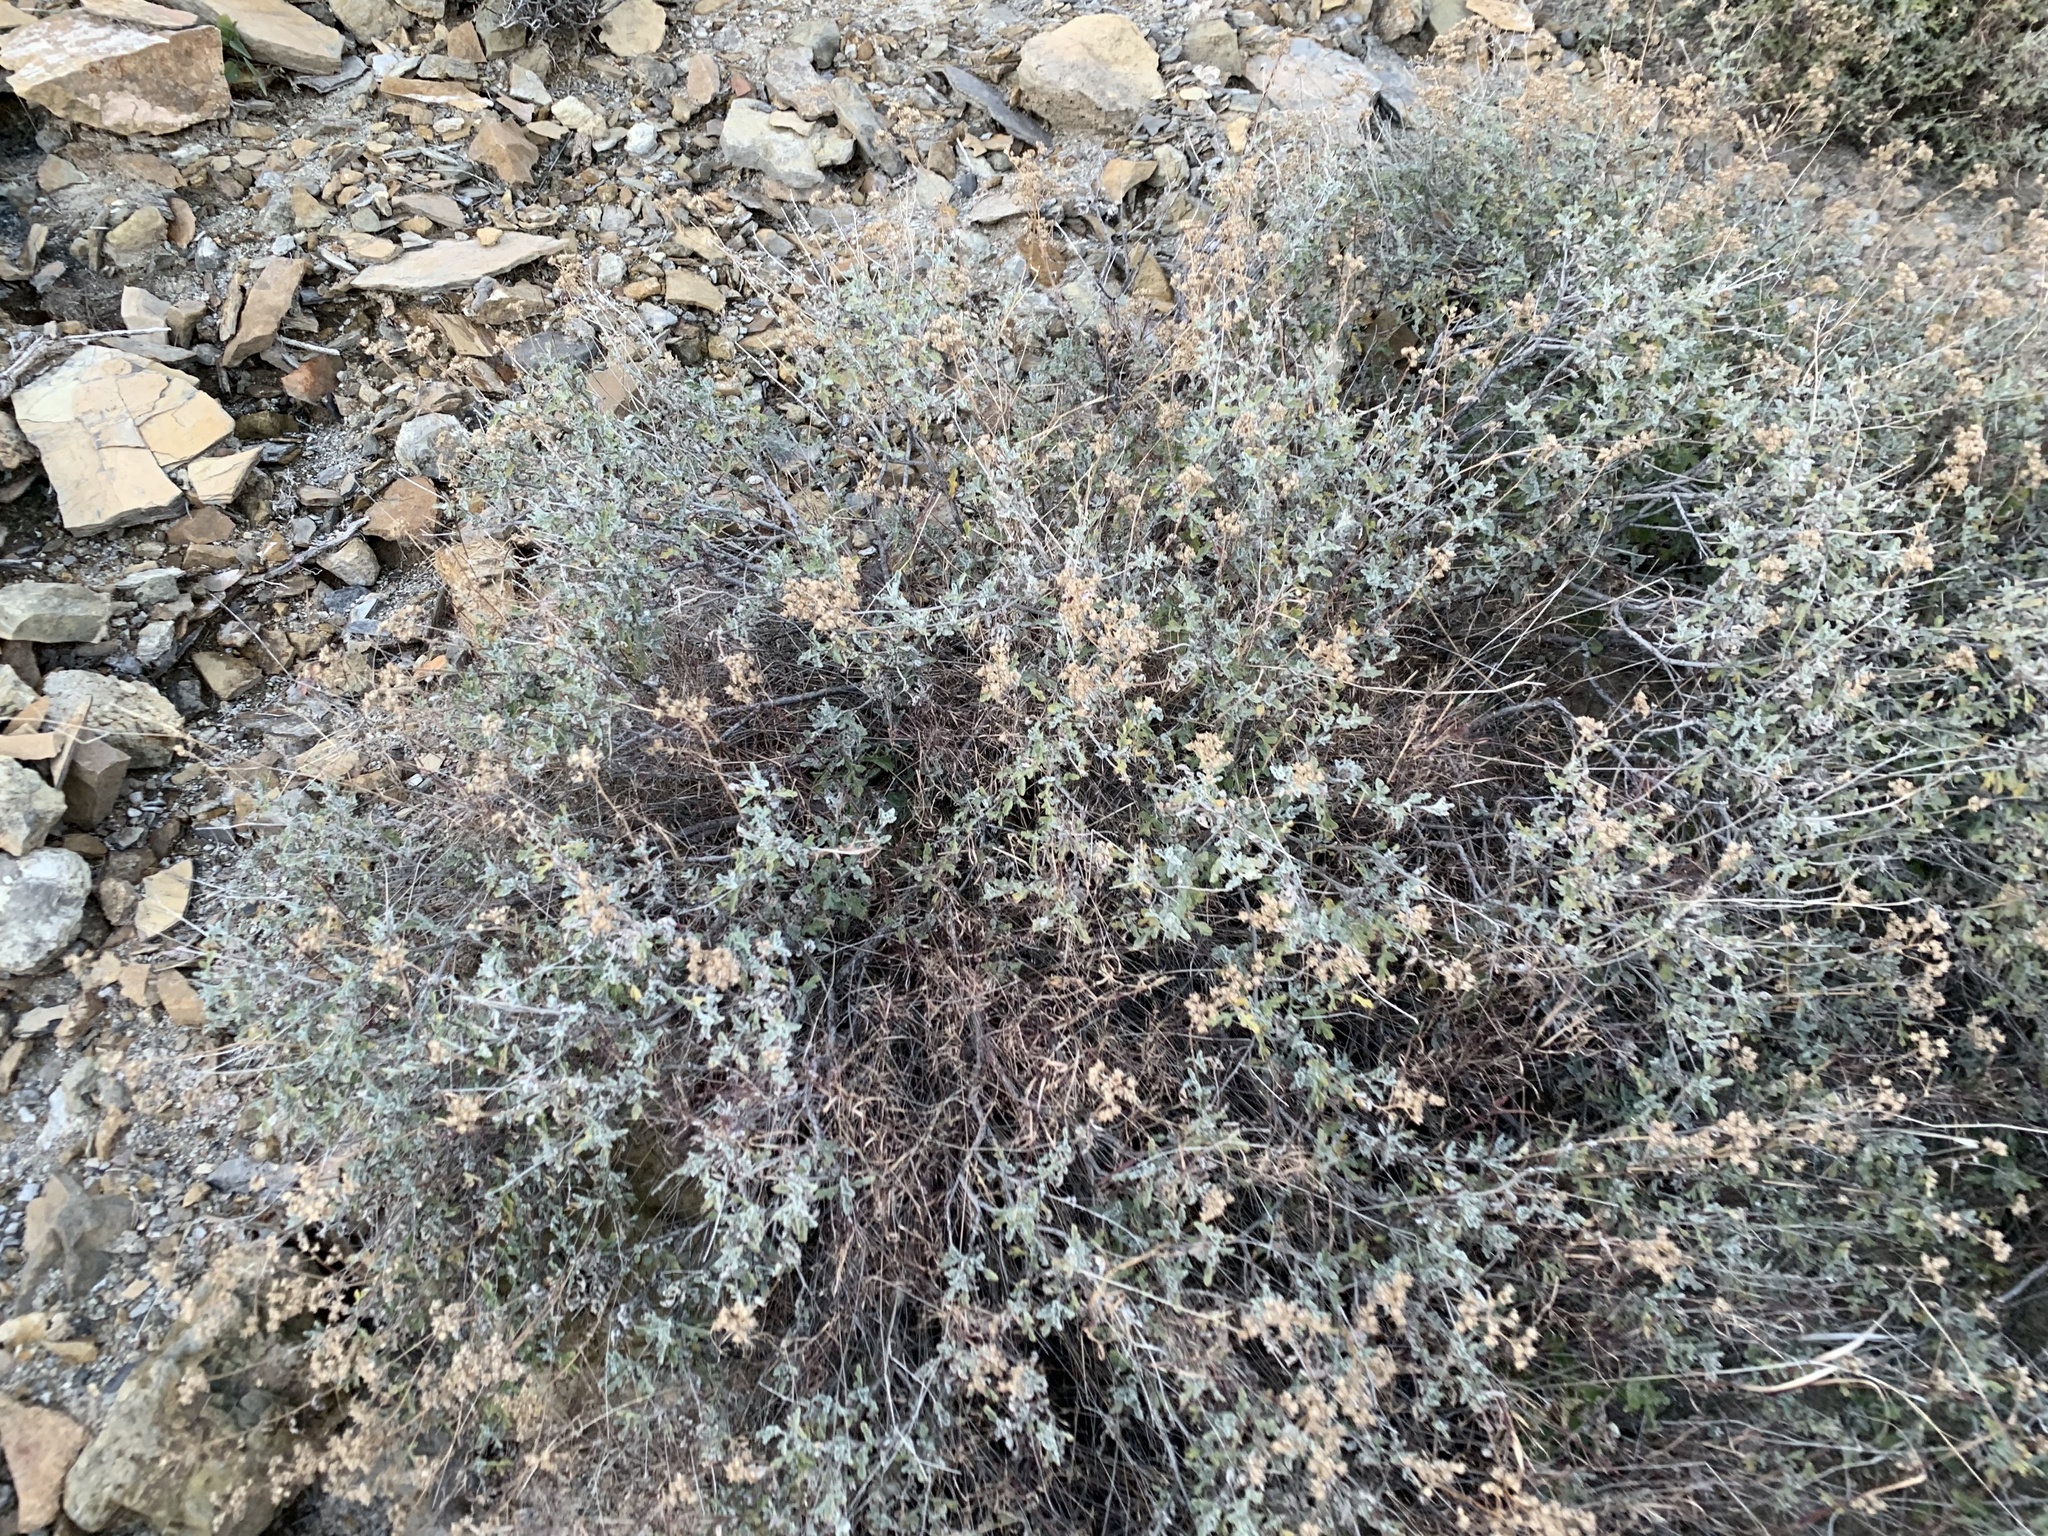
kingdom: Plantae
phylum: Tracheophyta
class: Magnoliopsida
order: Asterales
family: Asteraceae
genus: Parthenium
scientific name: Parthenium incanum
